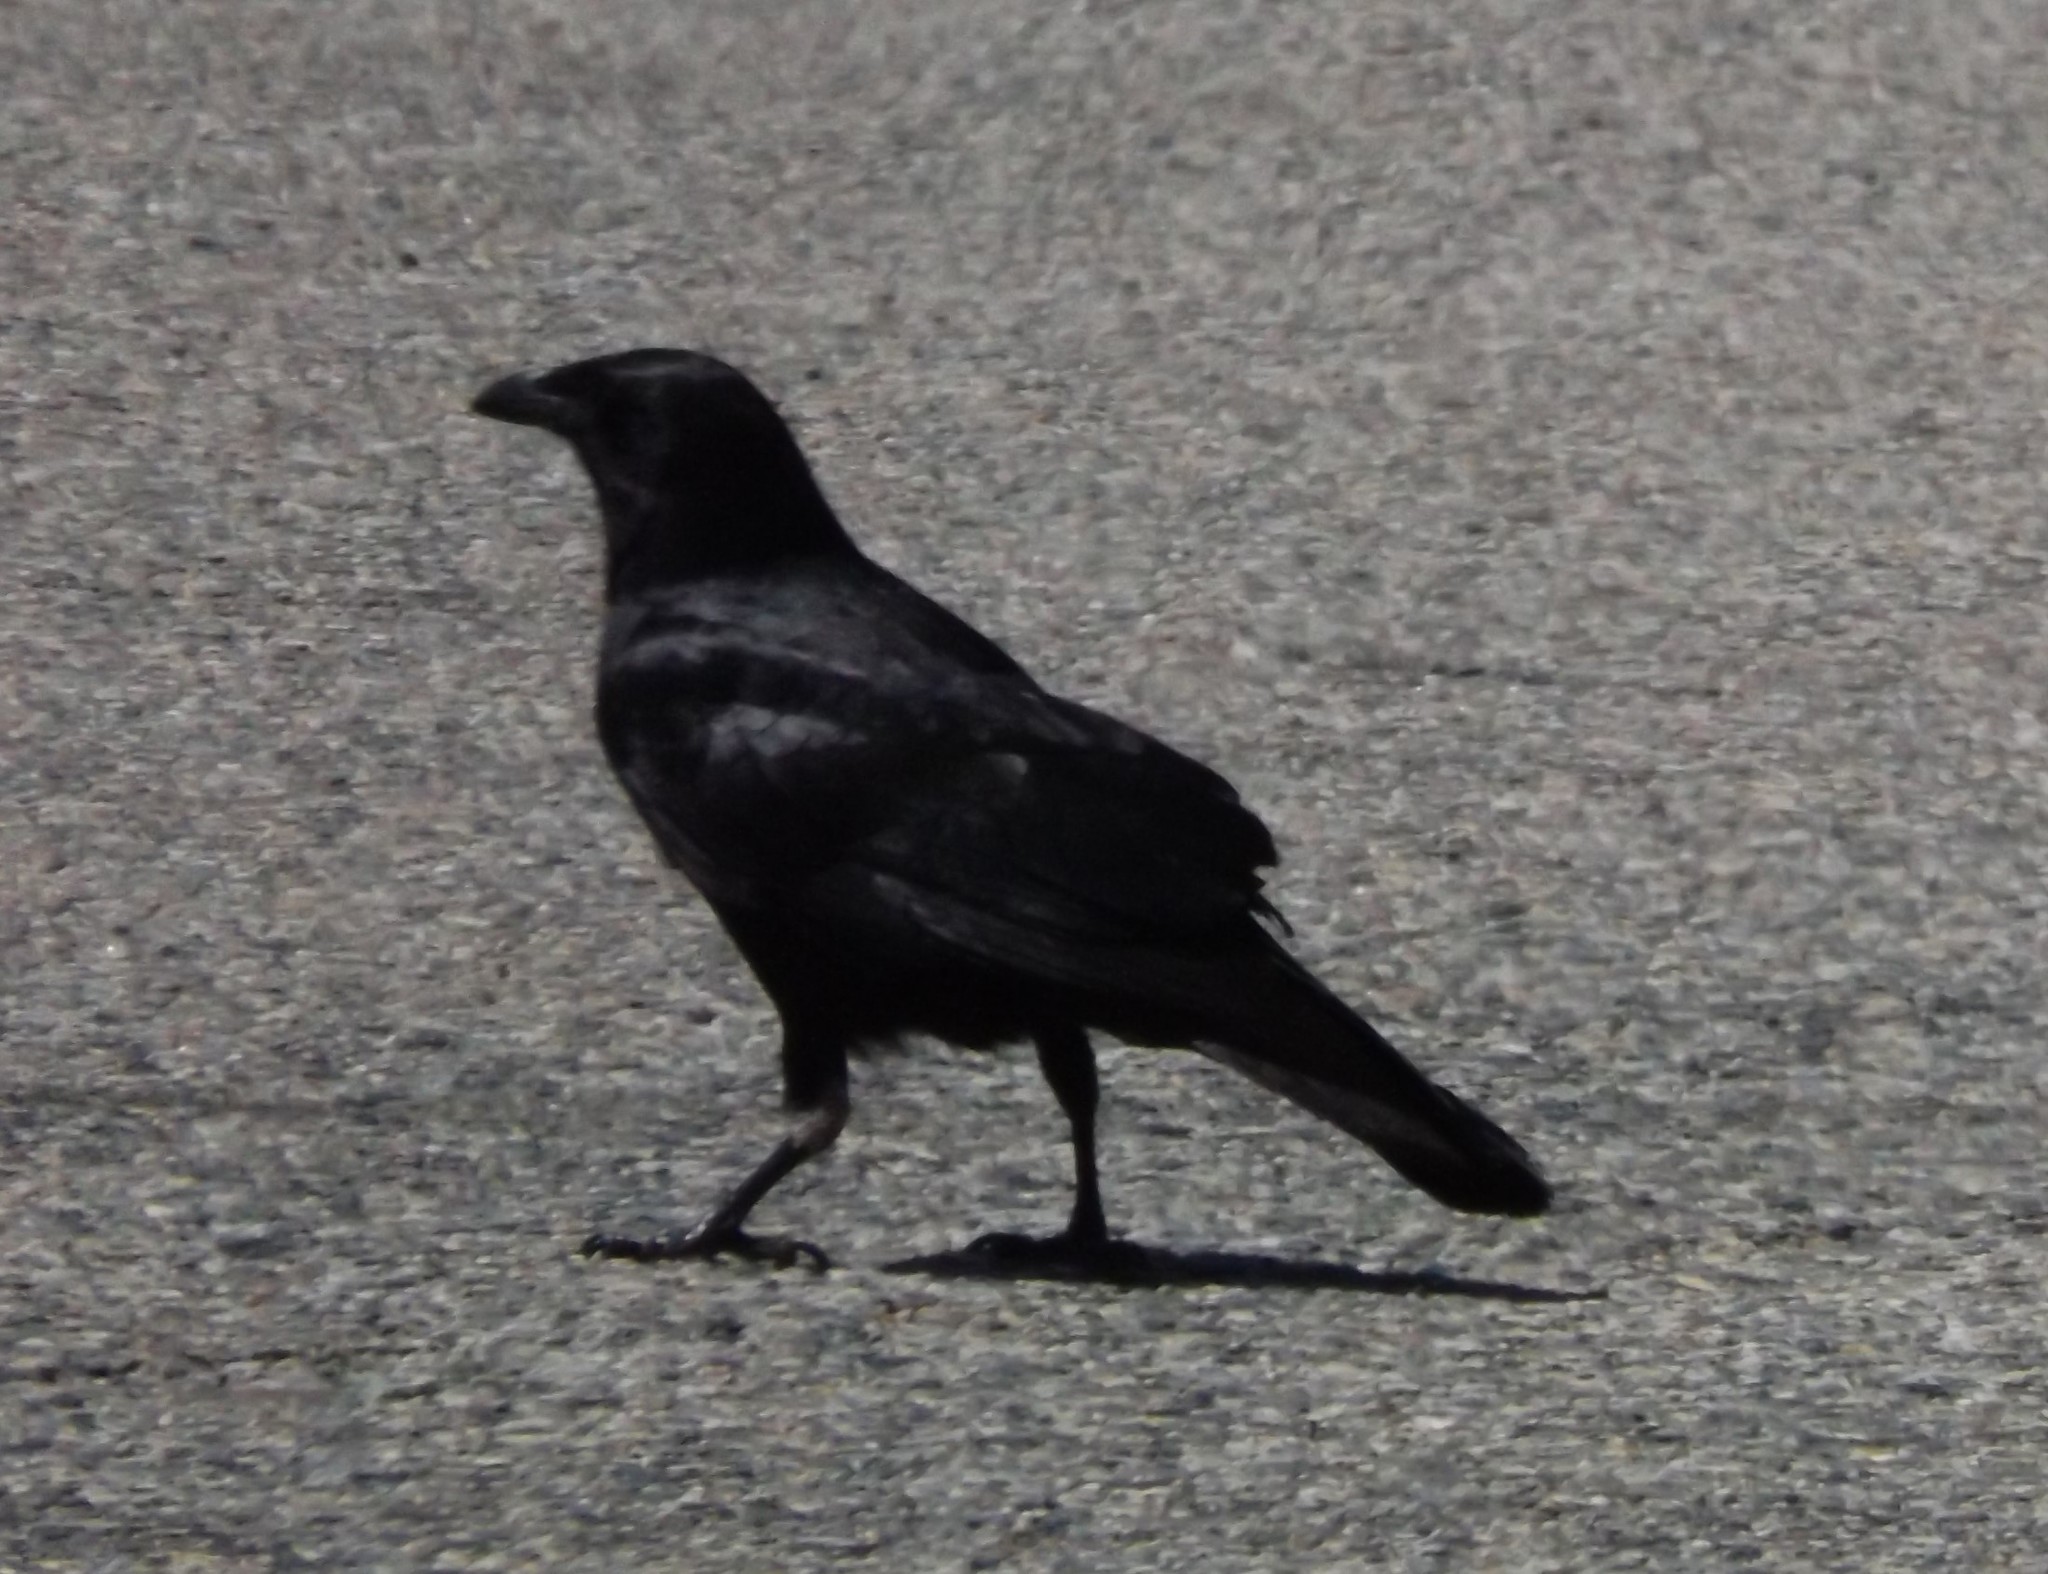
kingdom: Animalia
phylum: Chordata
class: Aves
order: Passeriformes
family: Corvidae
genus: Corvus
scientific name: Corvus brachyrhynchos
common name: American crow
